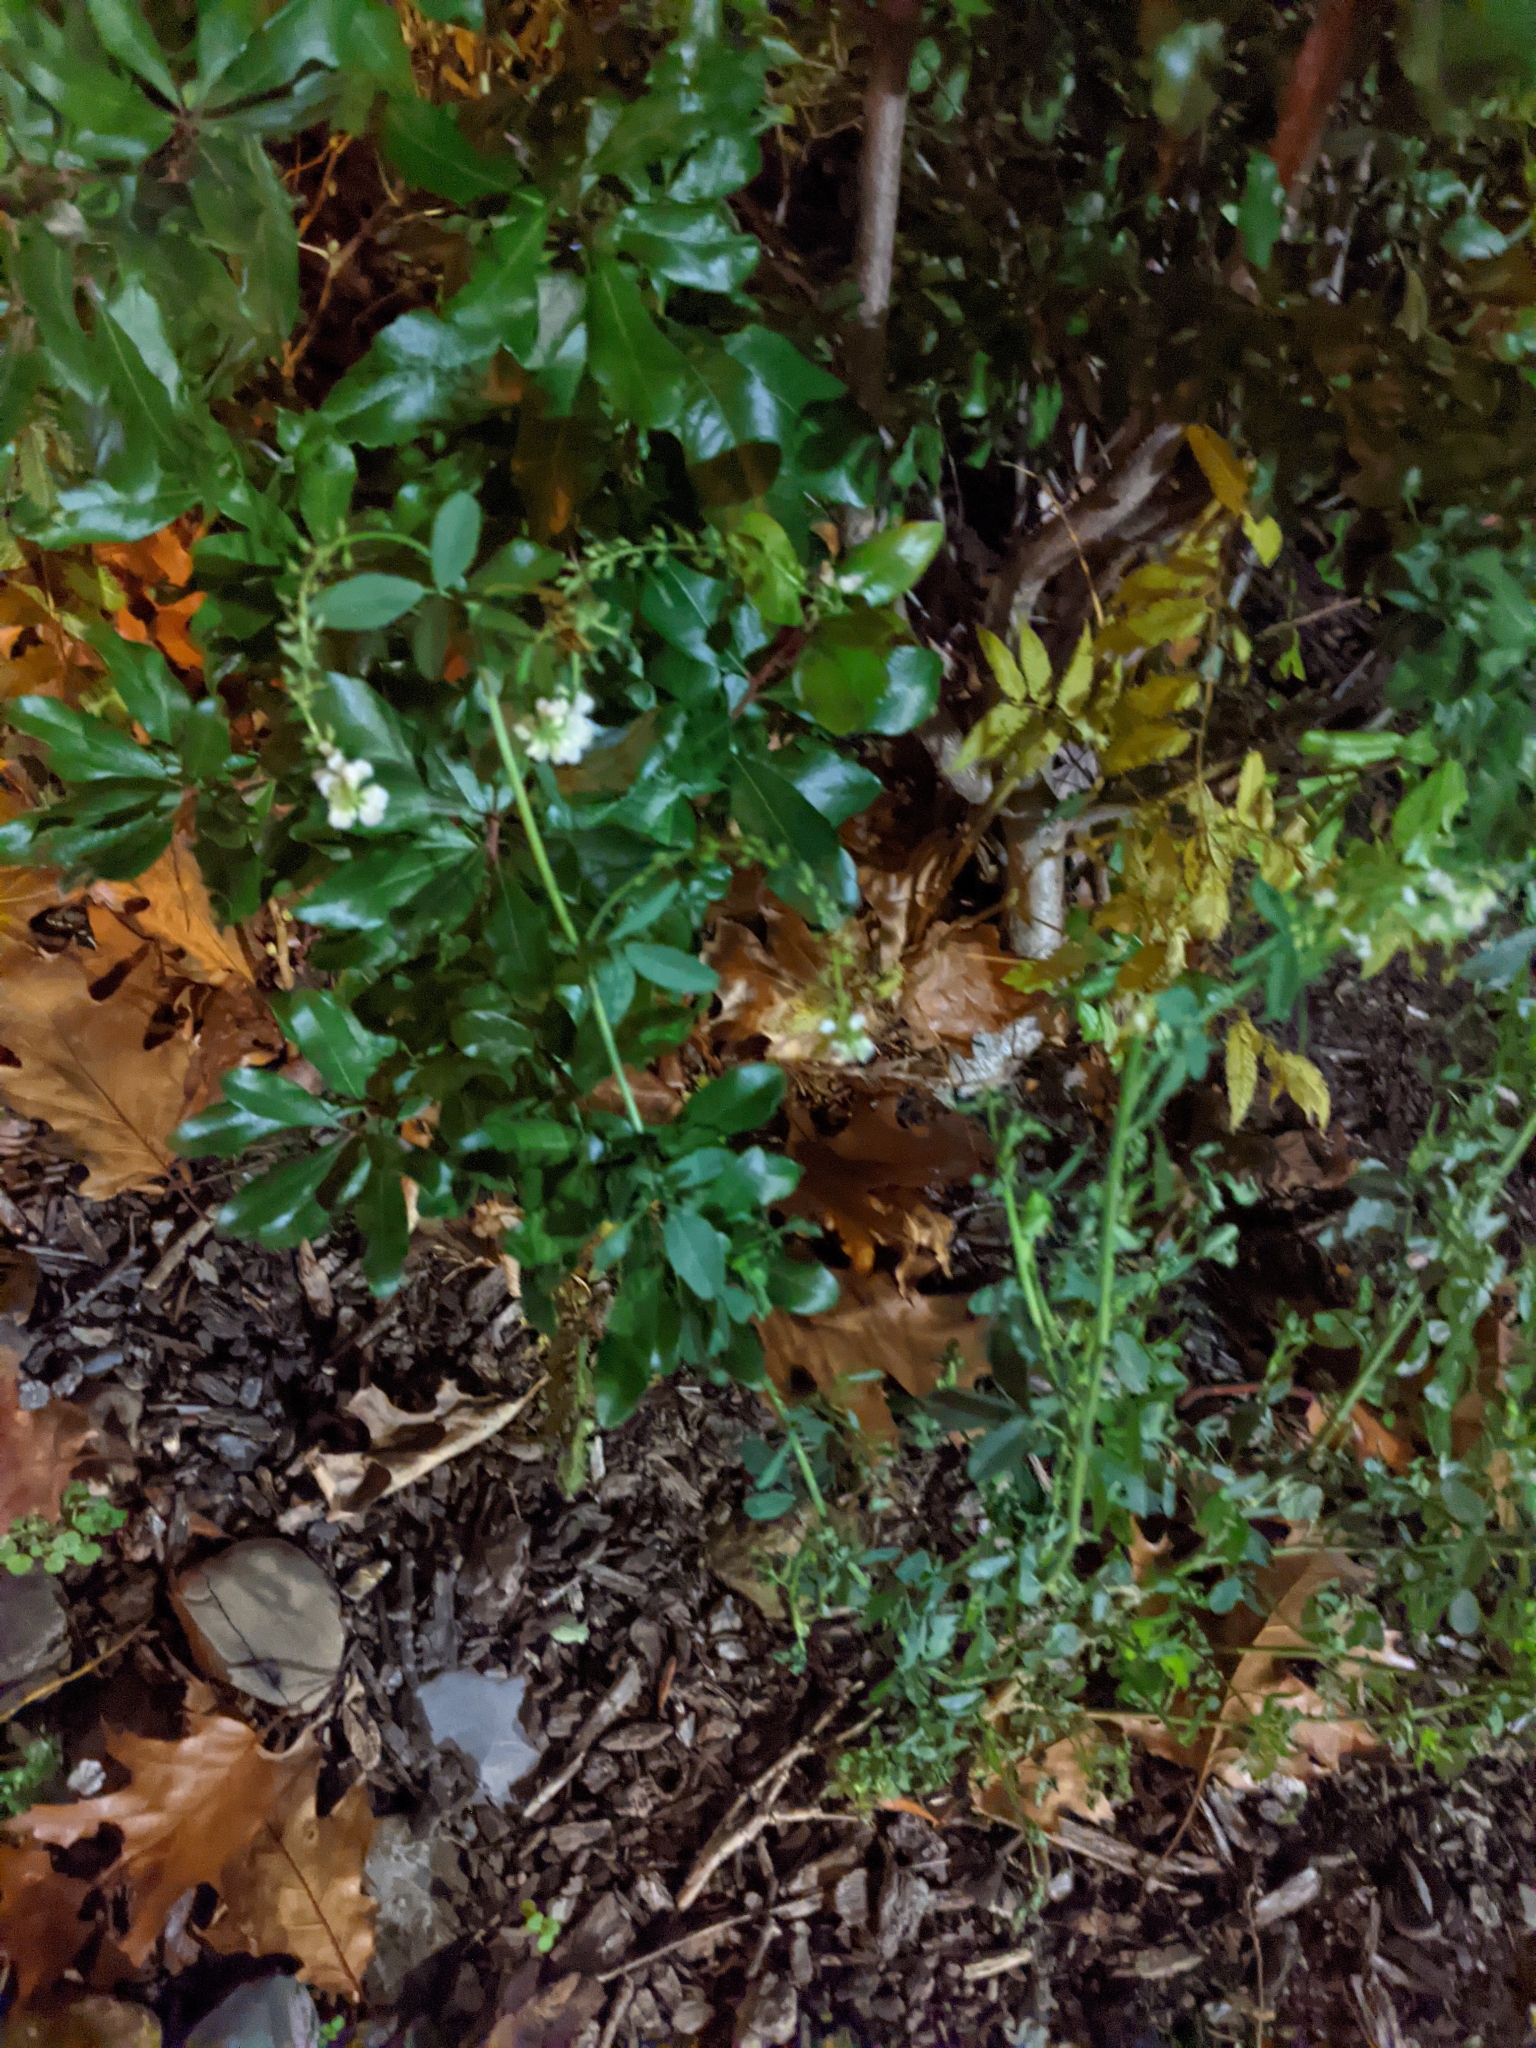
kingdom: Plantae
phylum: Tracheophyta
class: Magnoliopsida
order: Fabales
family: Fabaceae
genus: Melilotus
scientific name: Melilotus albus
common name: White melilot
